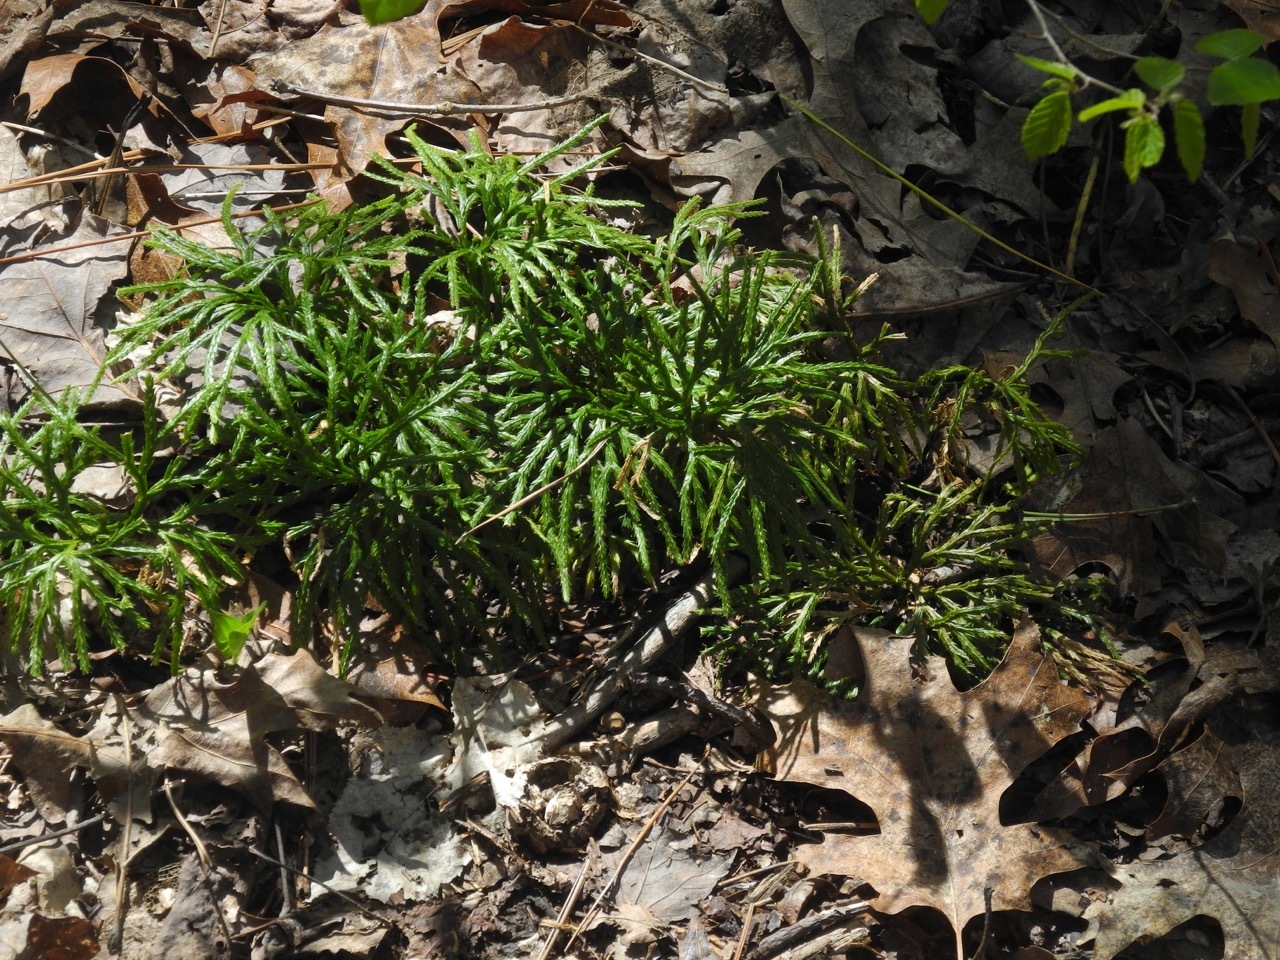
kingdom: Plantae
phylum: Tracheophyta
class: Lycopodiopsida
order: Lycopodiales
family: Lycopodiaceae
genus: Diphasiastrum
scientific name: Diphasiastrum digitatum
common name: Southern running-pine
